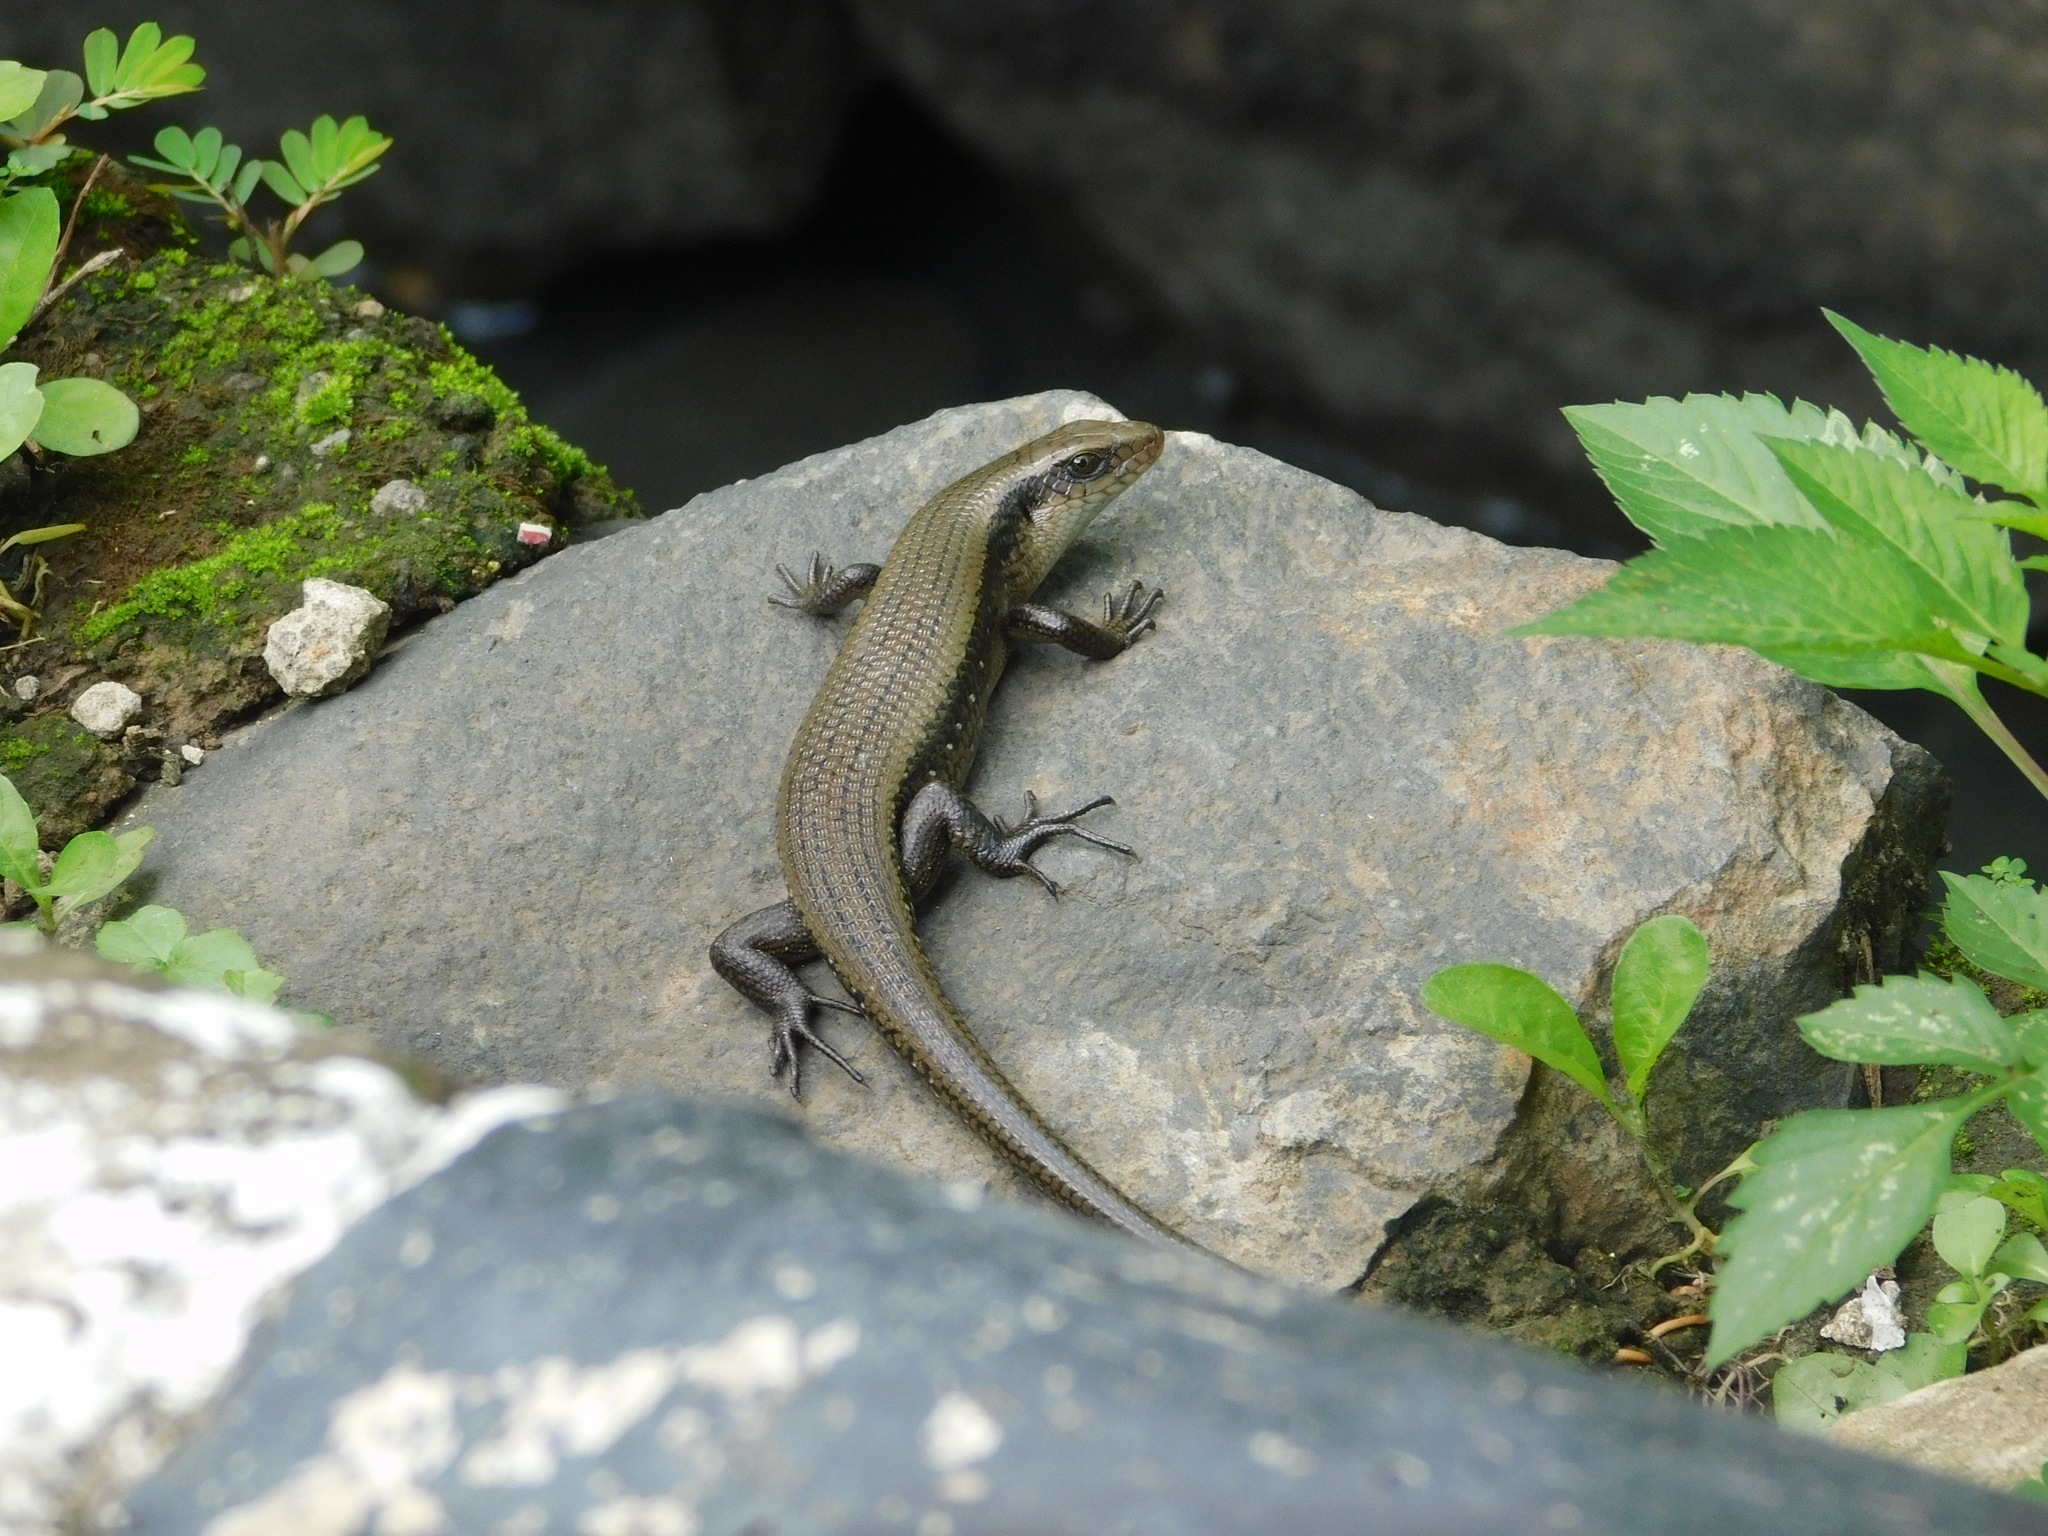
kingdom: Animalia
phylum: Chordata
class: Squamata
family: Scincidae
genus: Eutropis
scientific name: Eutropis multifasciata
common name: Common mabuya
